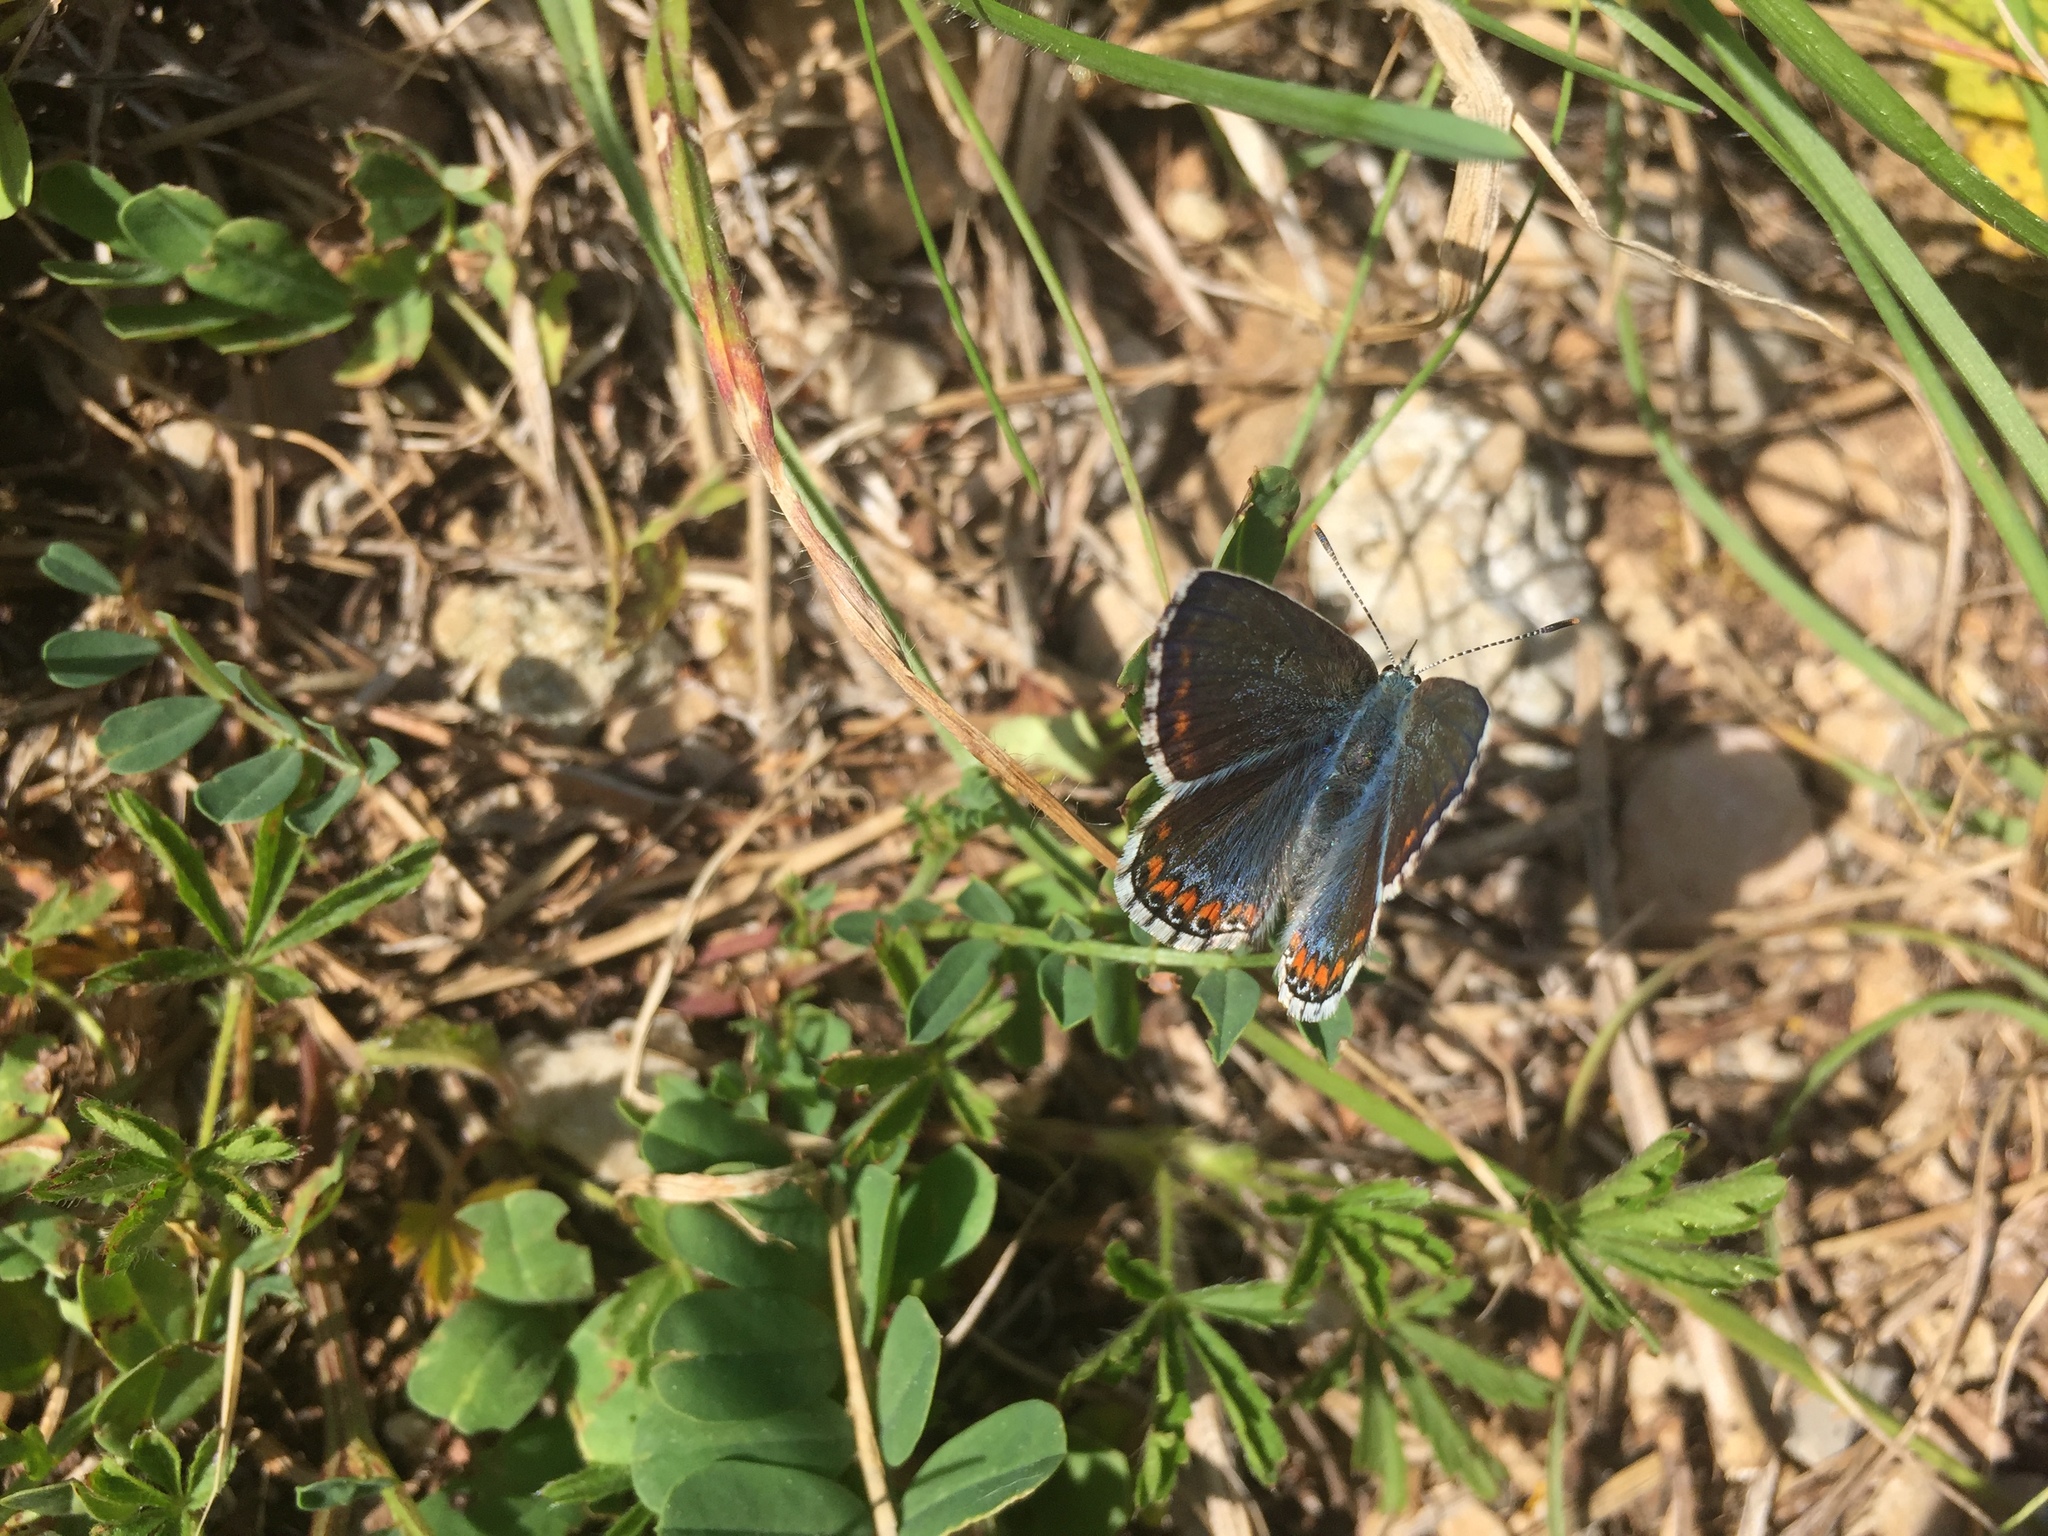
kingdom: Animalia
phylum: Arthropoda
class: Insecta
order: Lepidoptera
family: Lycaenidae
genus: Lysandra
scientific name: Lysandra bellargus
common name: Adonis blue
